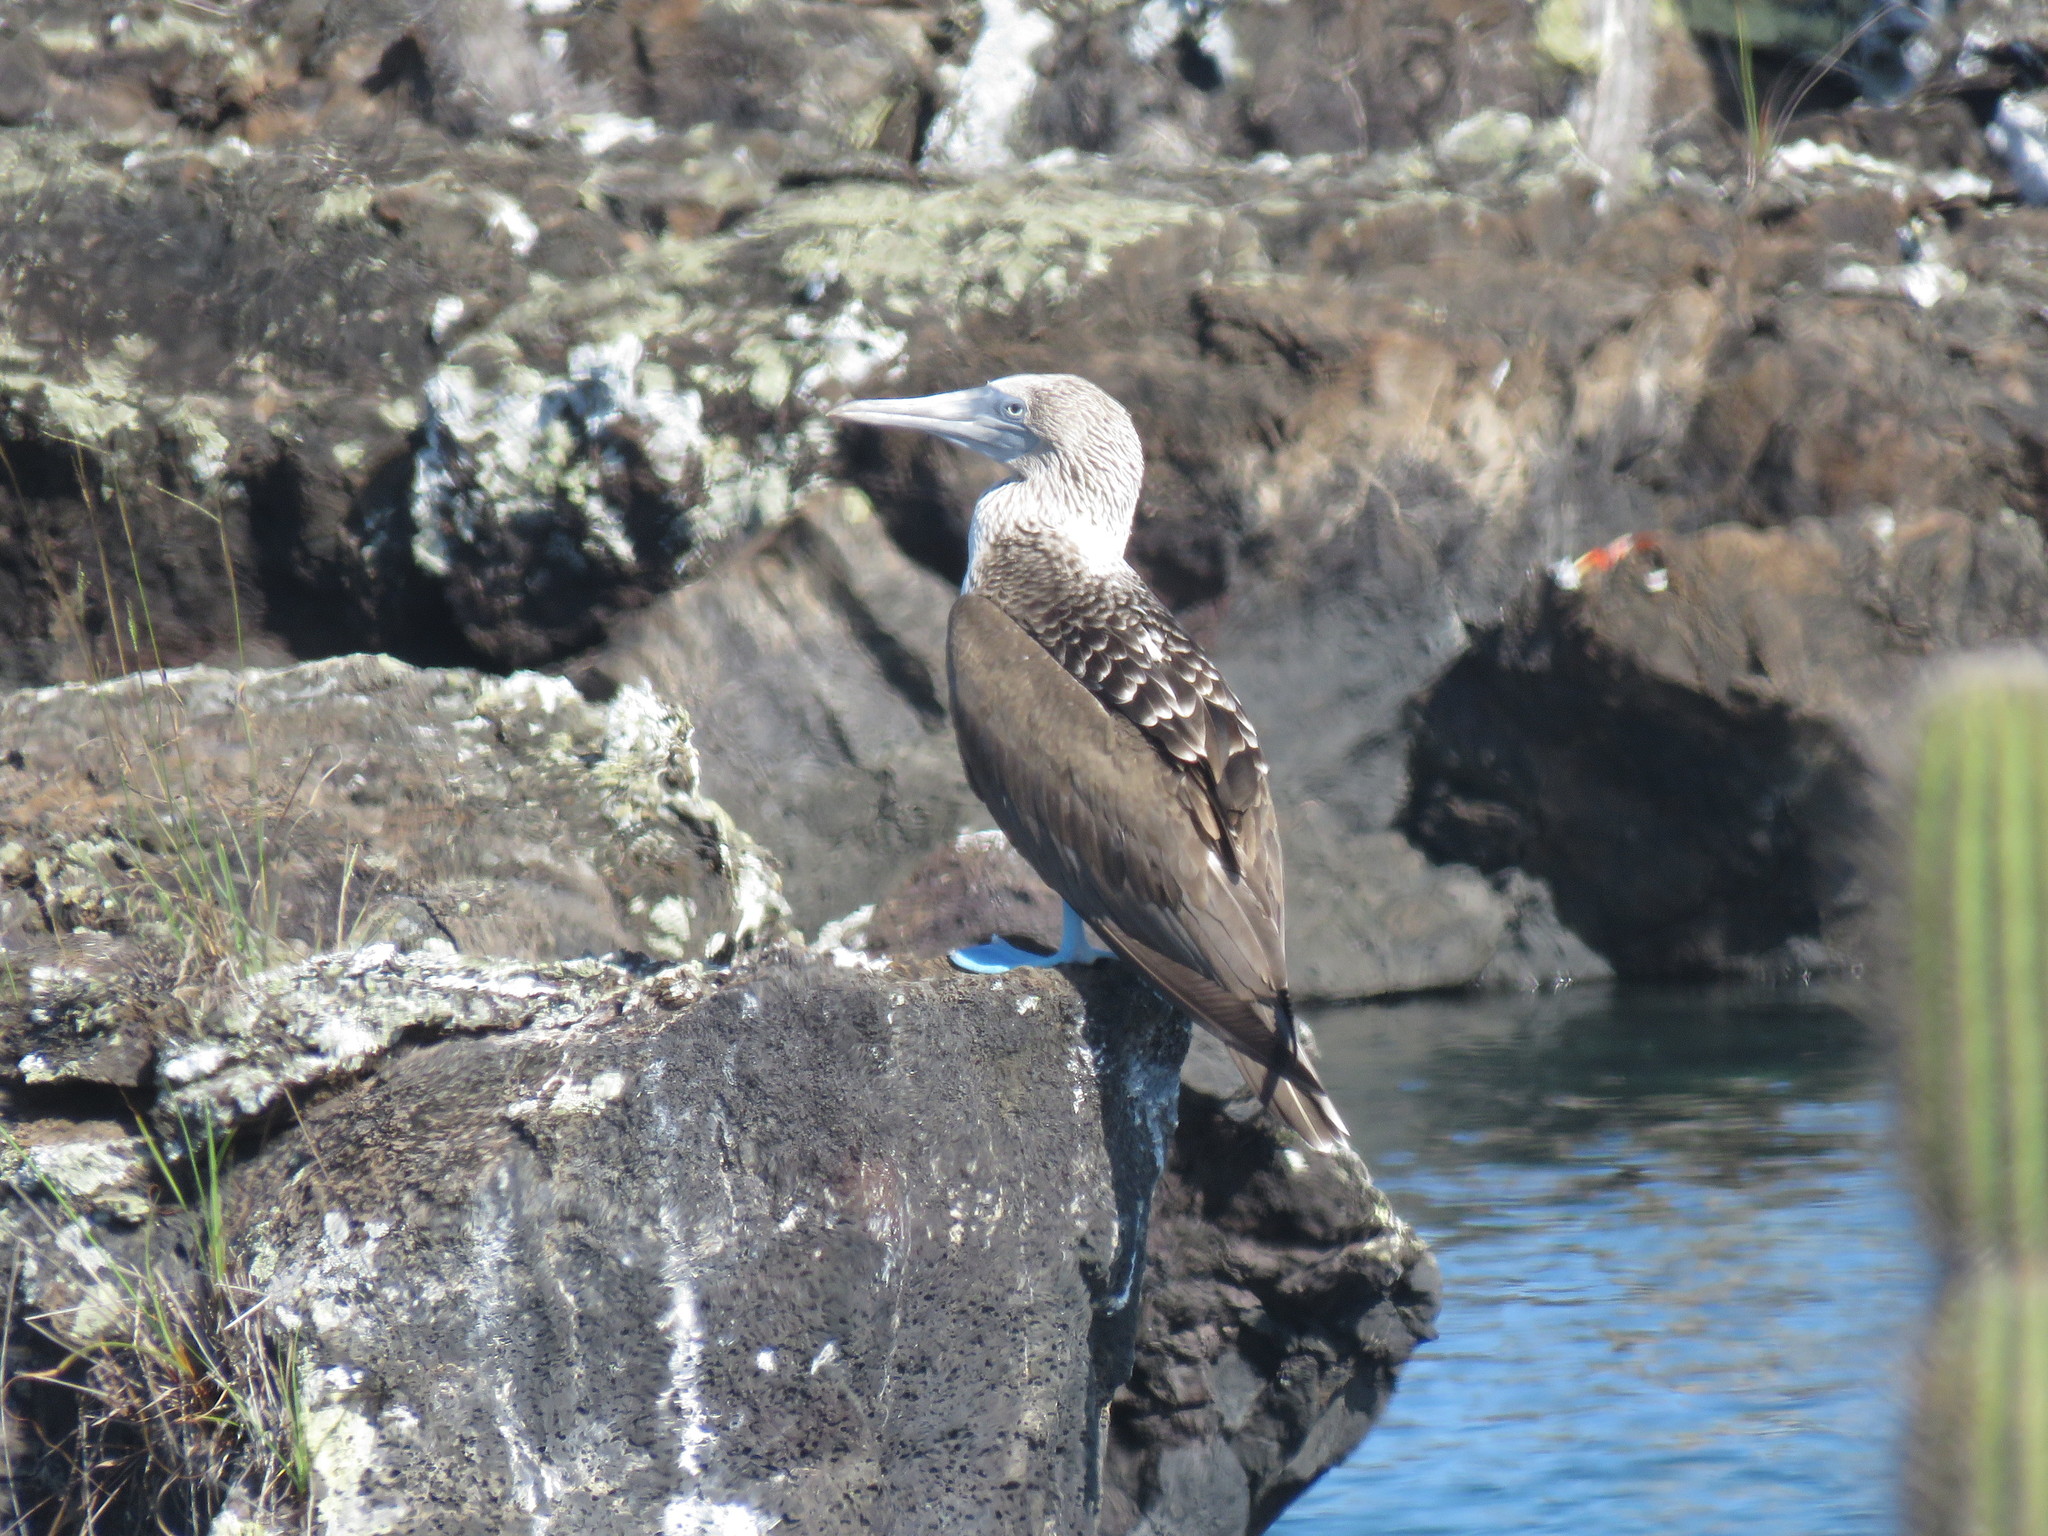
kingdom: Animalia
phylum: Chordata
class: Aves
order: Suliformes
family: Sulidae
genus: Sula
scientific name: Sula nebouxii
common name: Blue-footed booby
